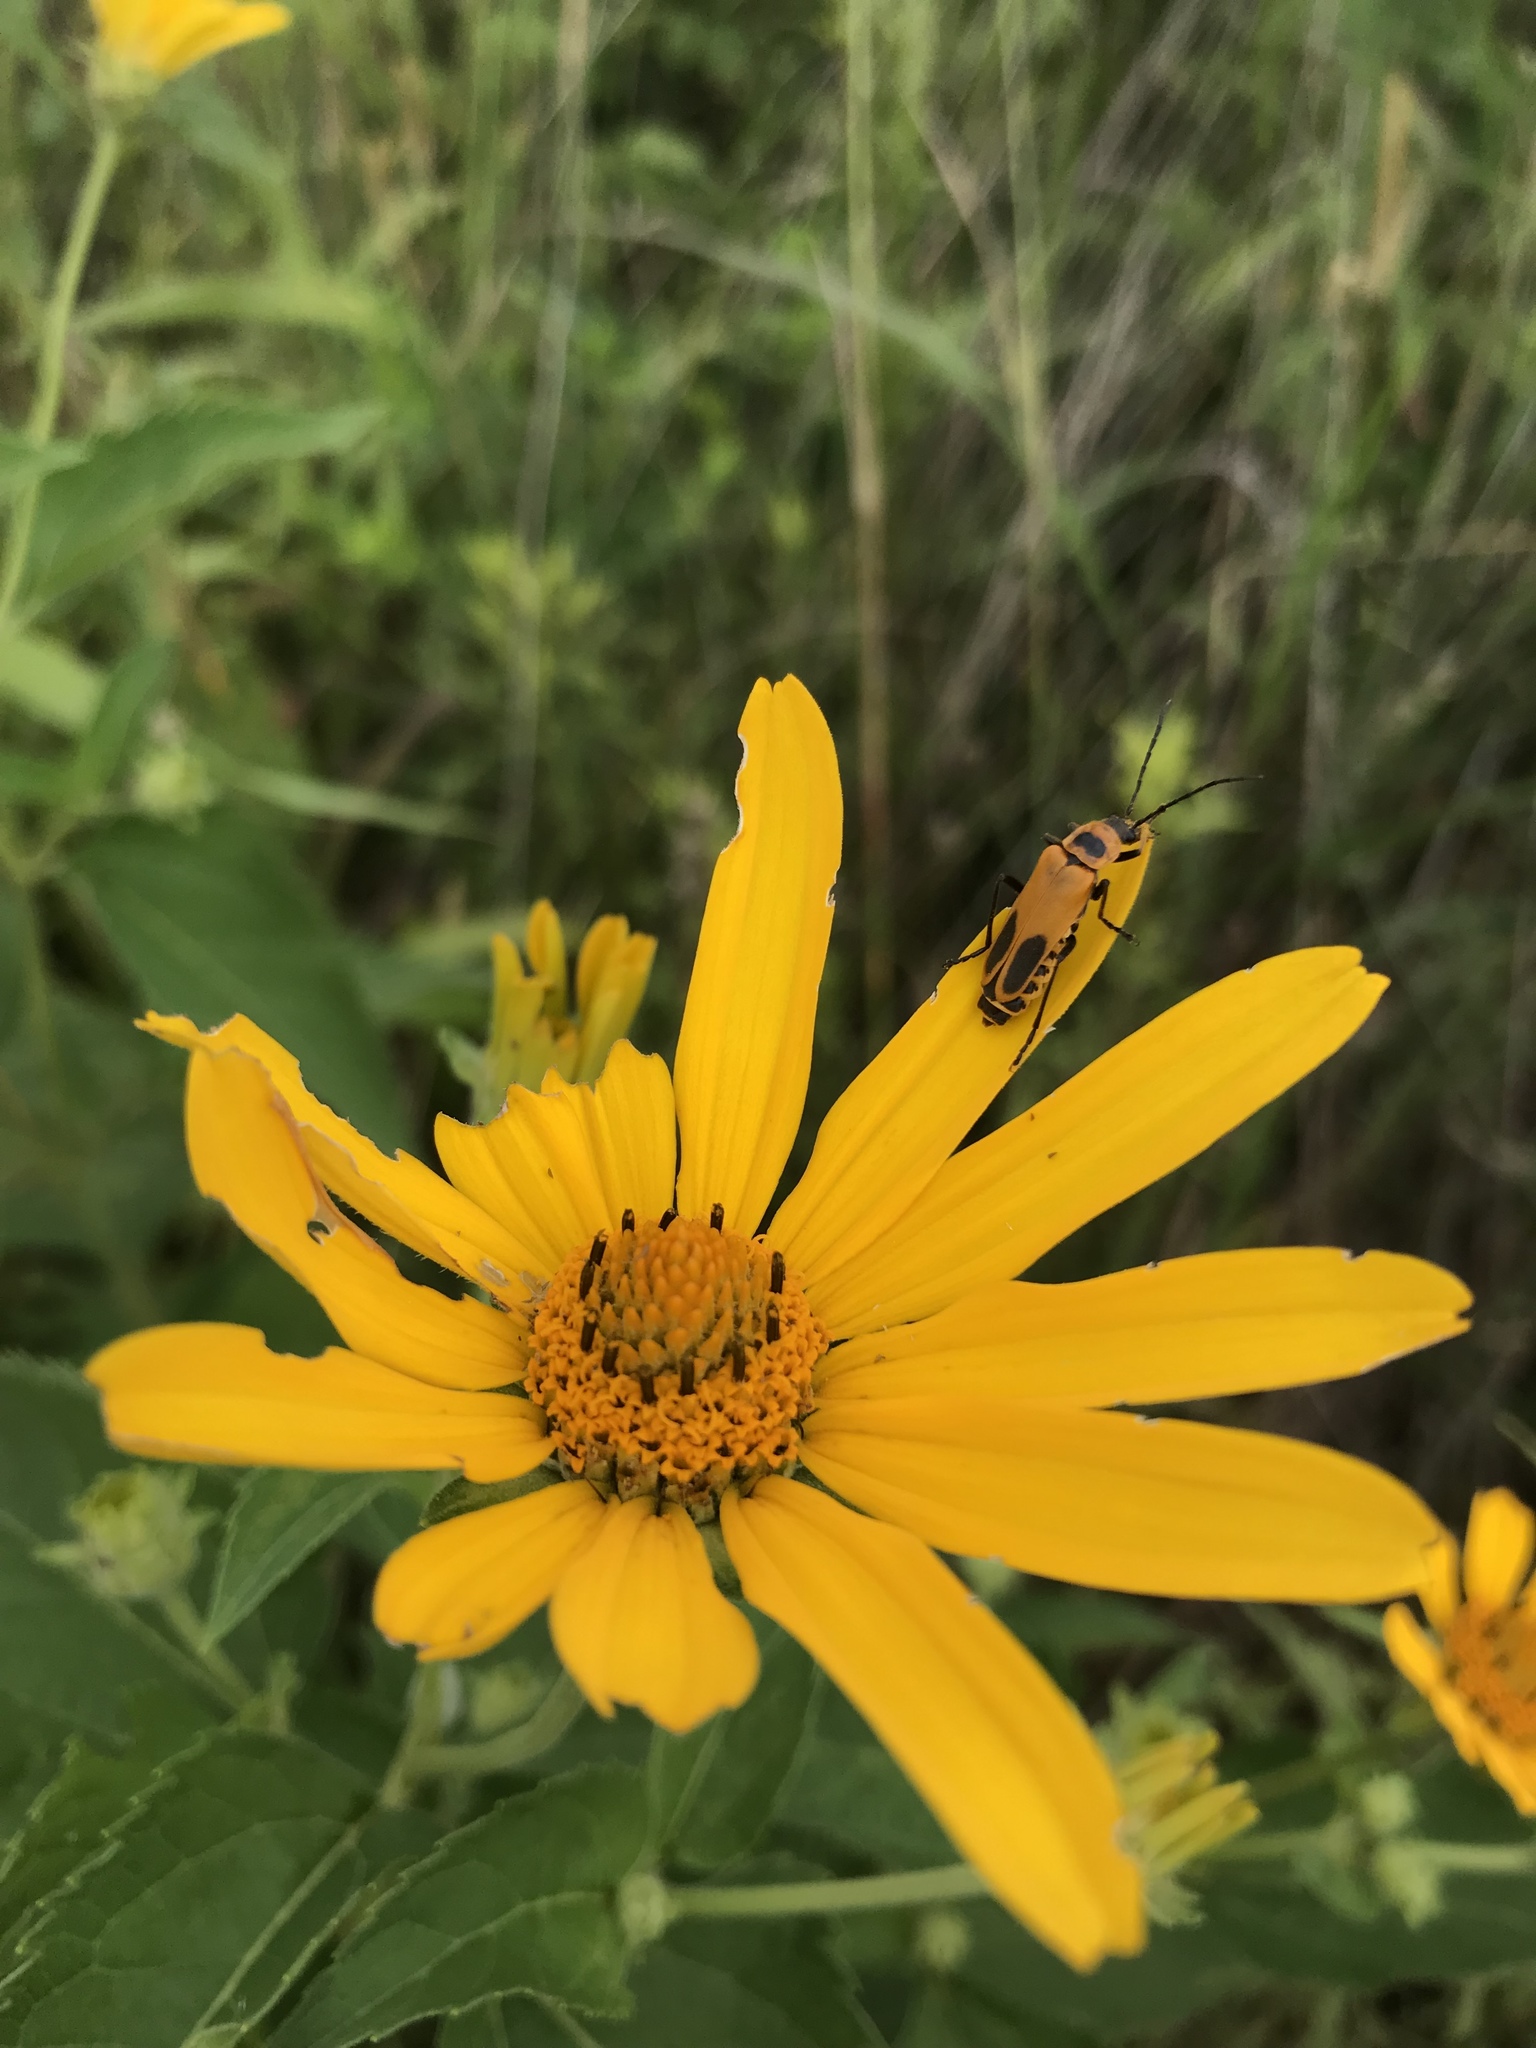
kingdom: Animalia
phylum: Arthropoda
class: Insecta
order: Coleoptera
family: Cantharidae
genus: Chauliognathus
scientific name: Chauliognathus pensylvanicus
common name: Goldenrod soldier beetle
